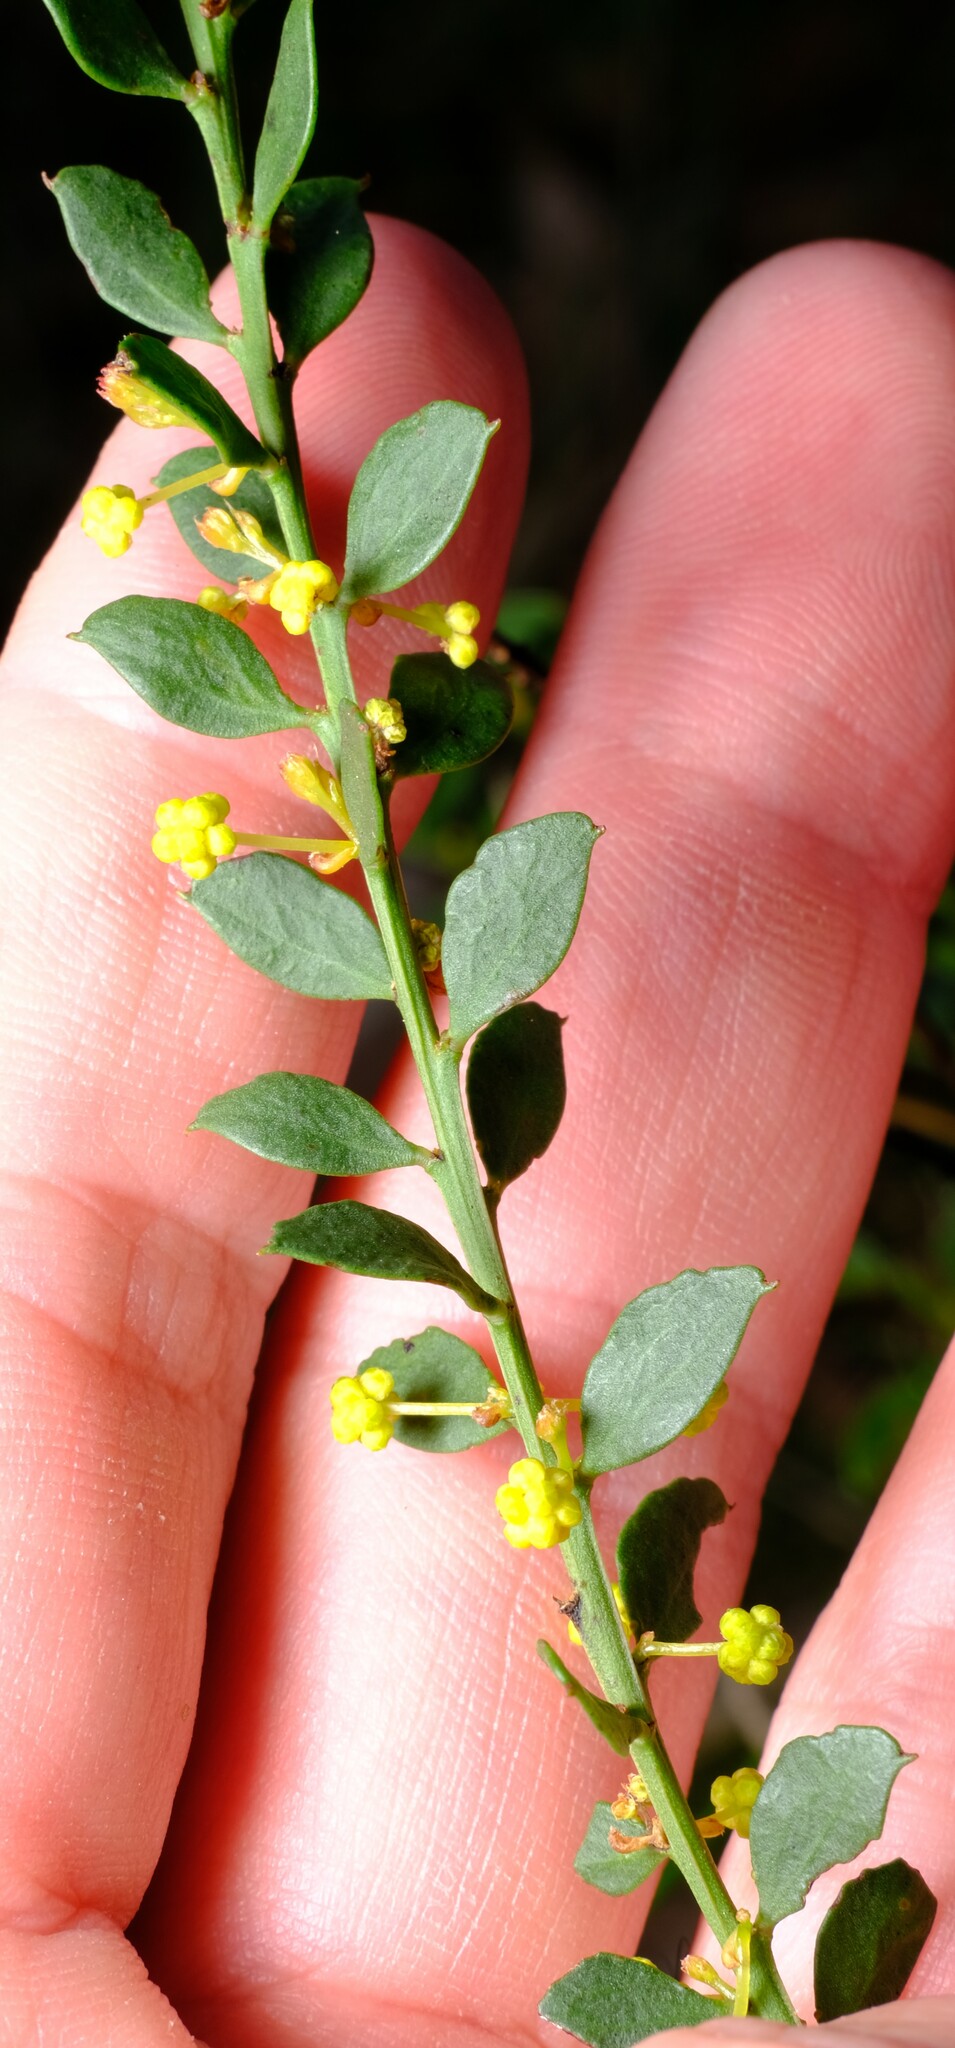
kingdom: Plantae
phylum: Tracheophyta
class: Magnoliopsida
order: Fabales
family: Fabaceae
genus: Acacia
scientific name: Acacia acinacea
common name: Gold-dust acacia
